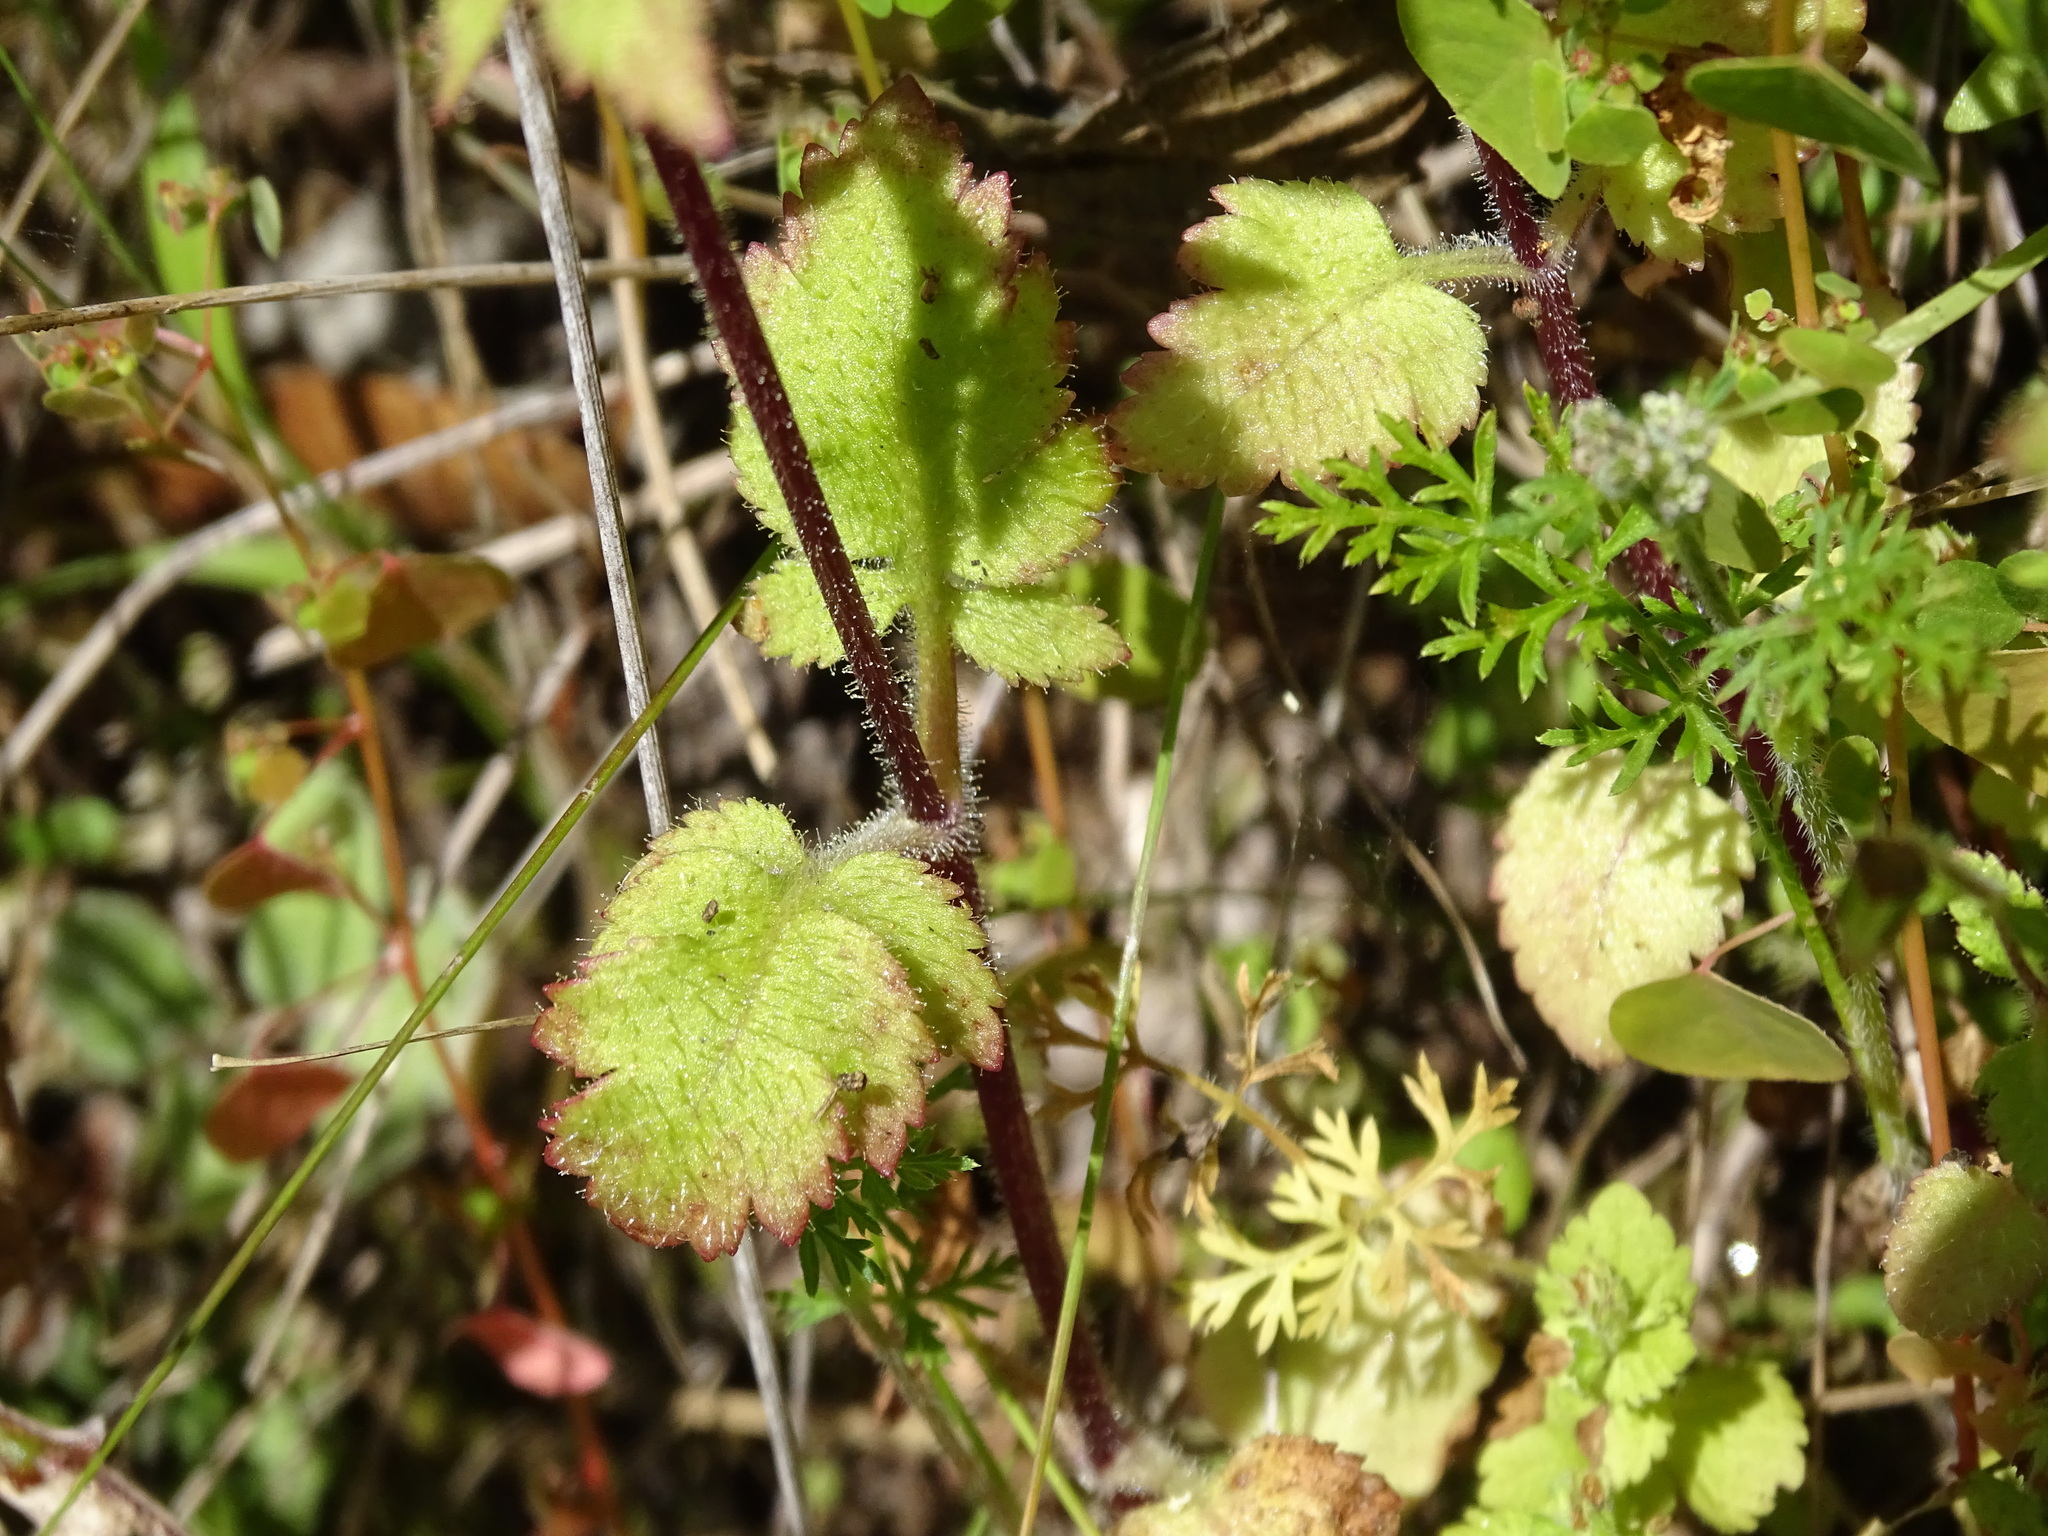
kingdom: Plantae
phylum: Tracheophyta
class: Magnoliopsida
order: Lamiales
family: Calceolariaceae
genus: Calceolaria
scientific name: Calceolaria tripartita
